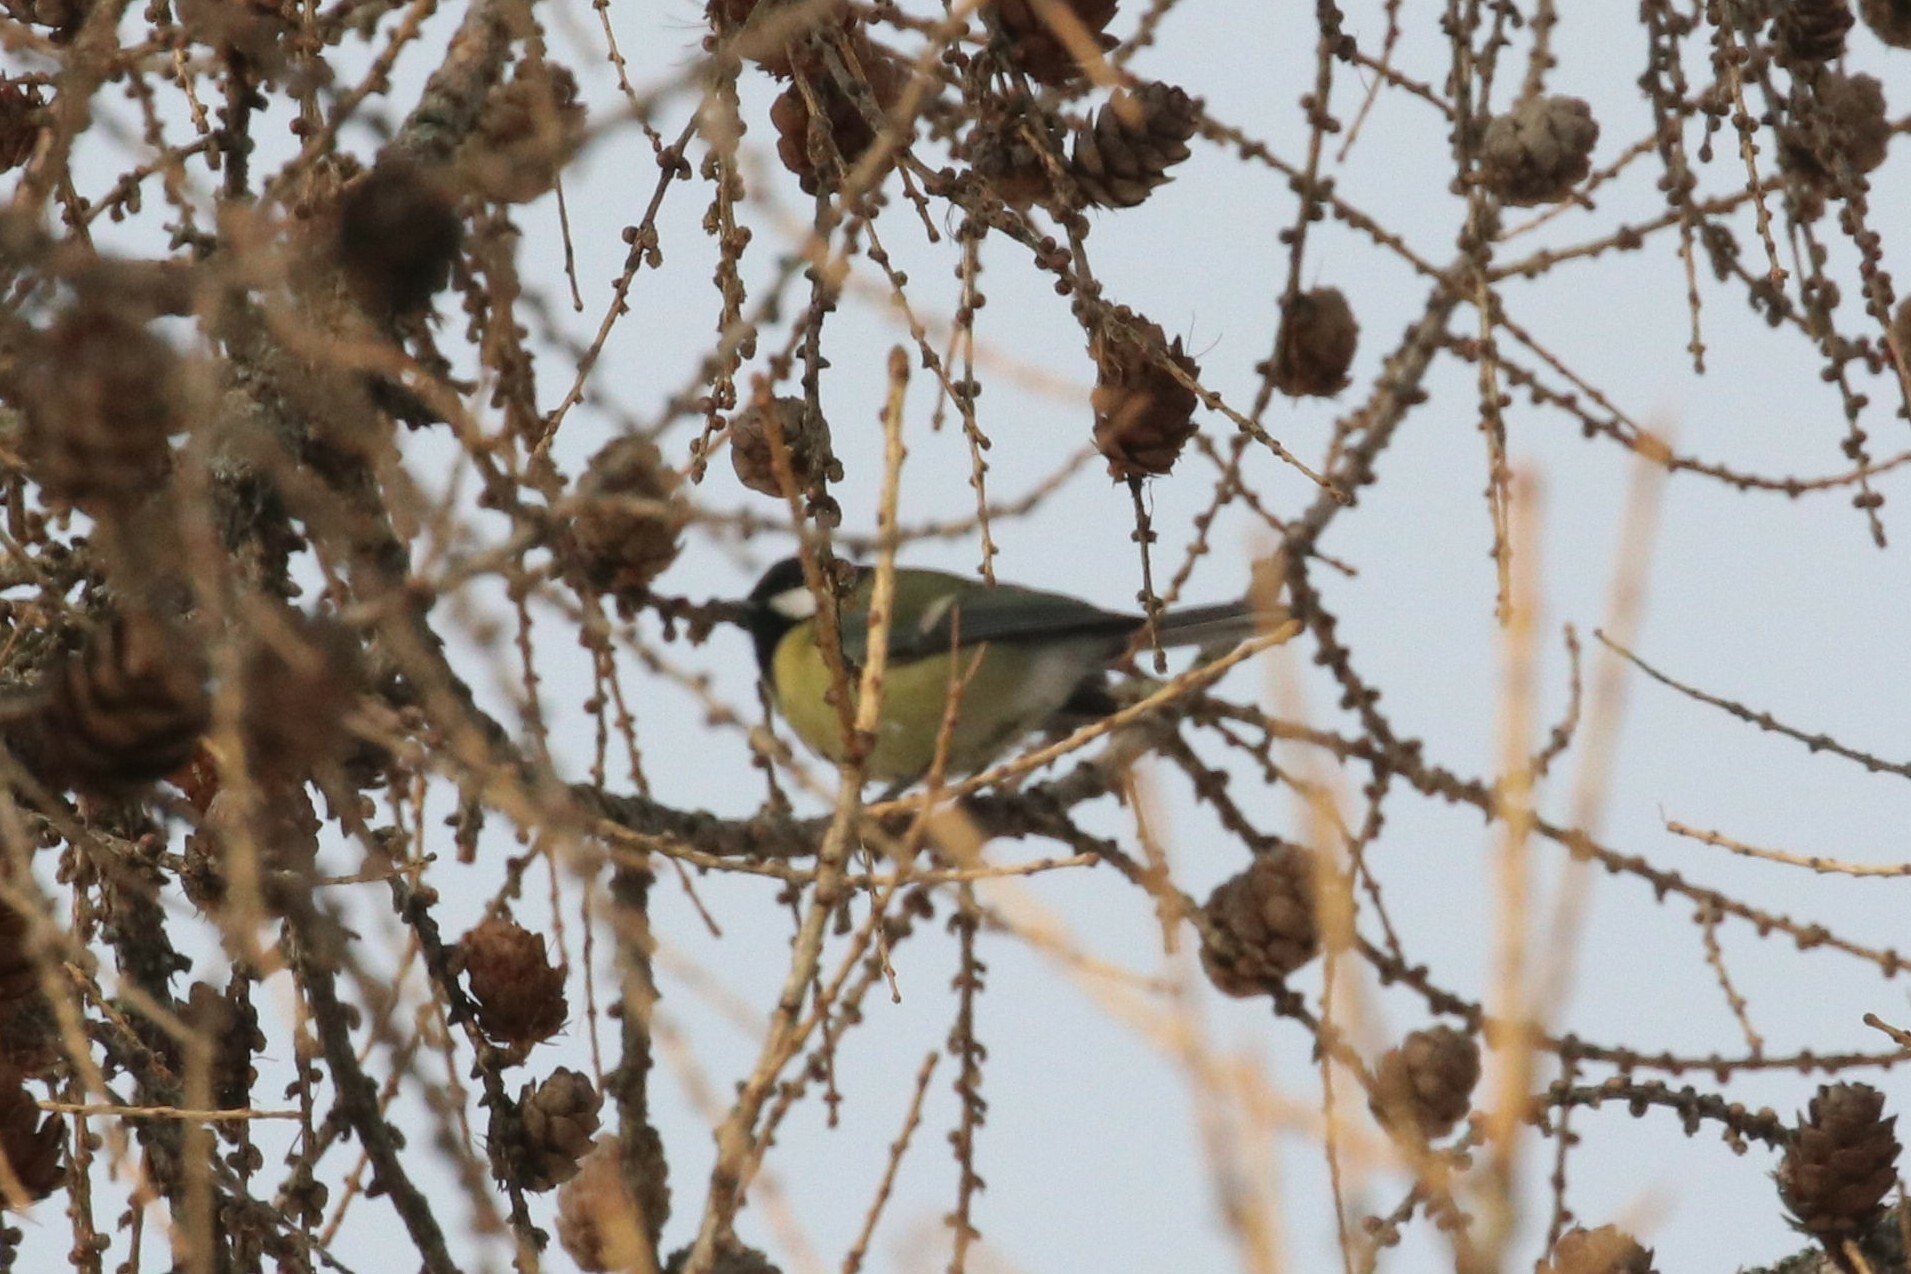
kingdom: Animalia
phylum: Chordata
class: Aves
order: Passeriformes
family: Paridae
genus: Parus
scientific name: Parus major
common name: Great tit
